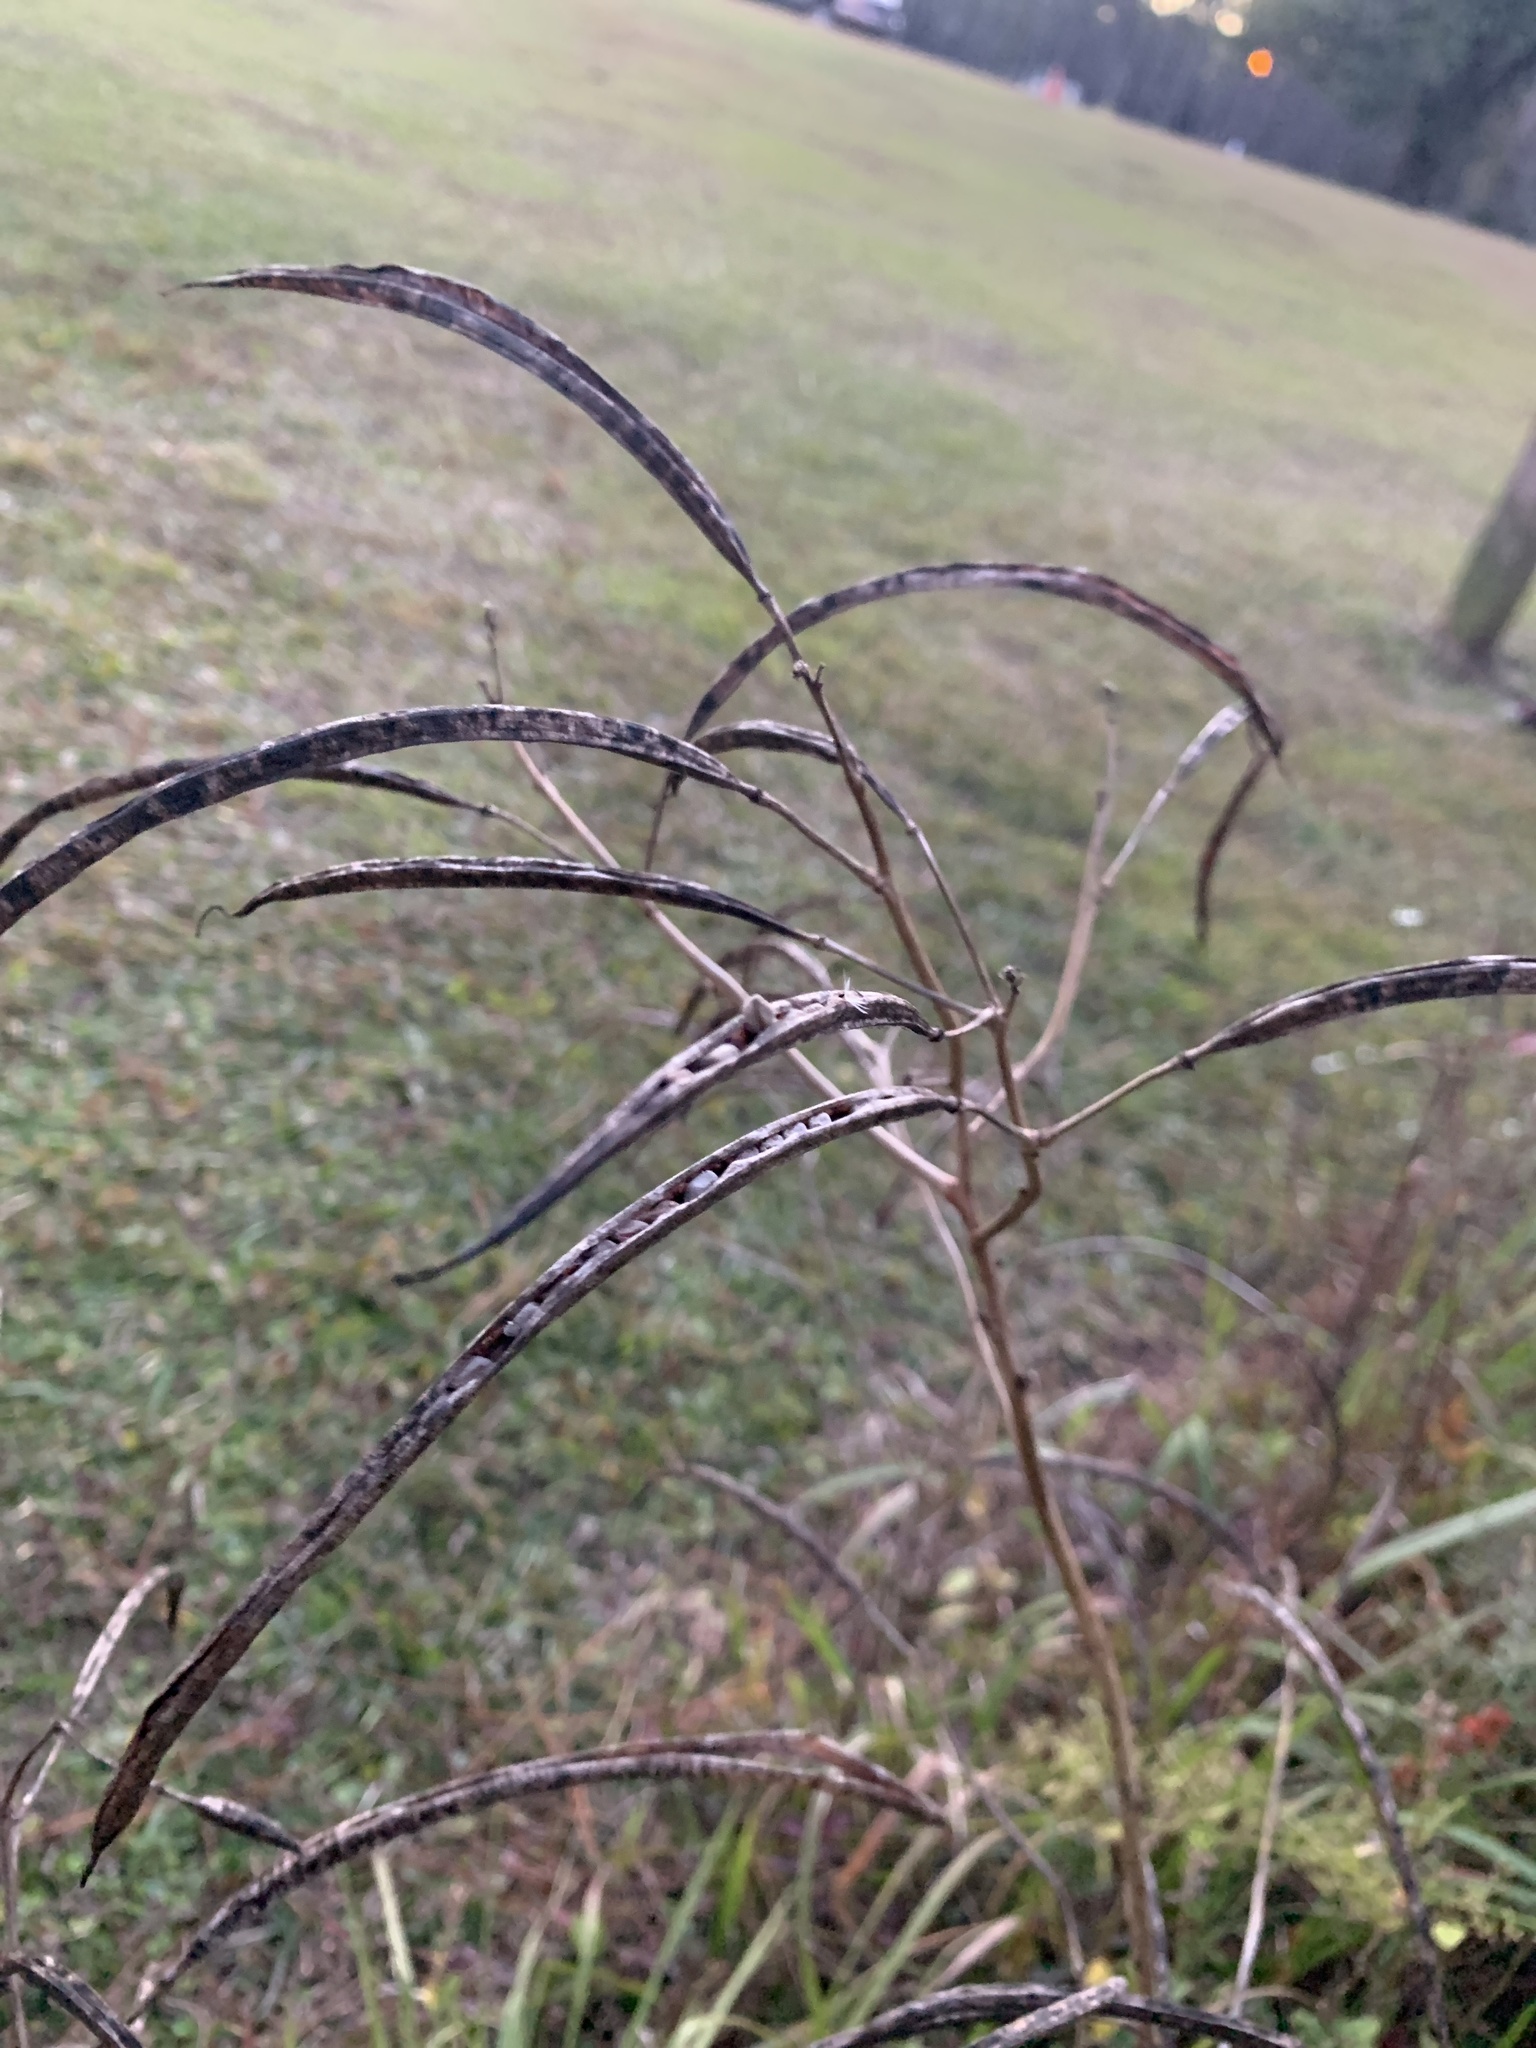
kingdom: Plantae
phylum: Tracheophyta
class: Magnoliopsida
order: Fabales
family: Fabaceae
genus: Sesbania
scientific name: Sesbania herbacea
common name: Bigpod sesbania
